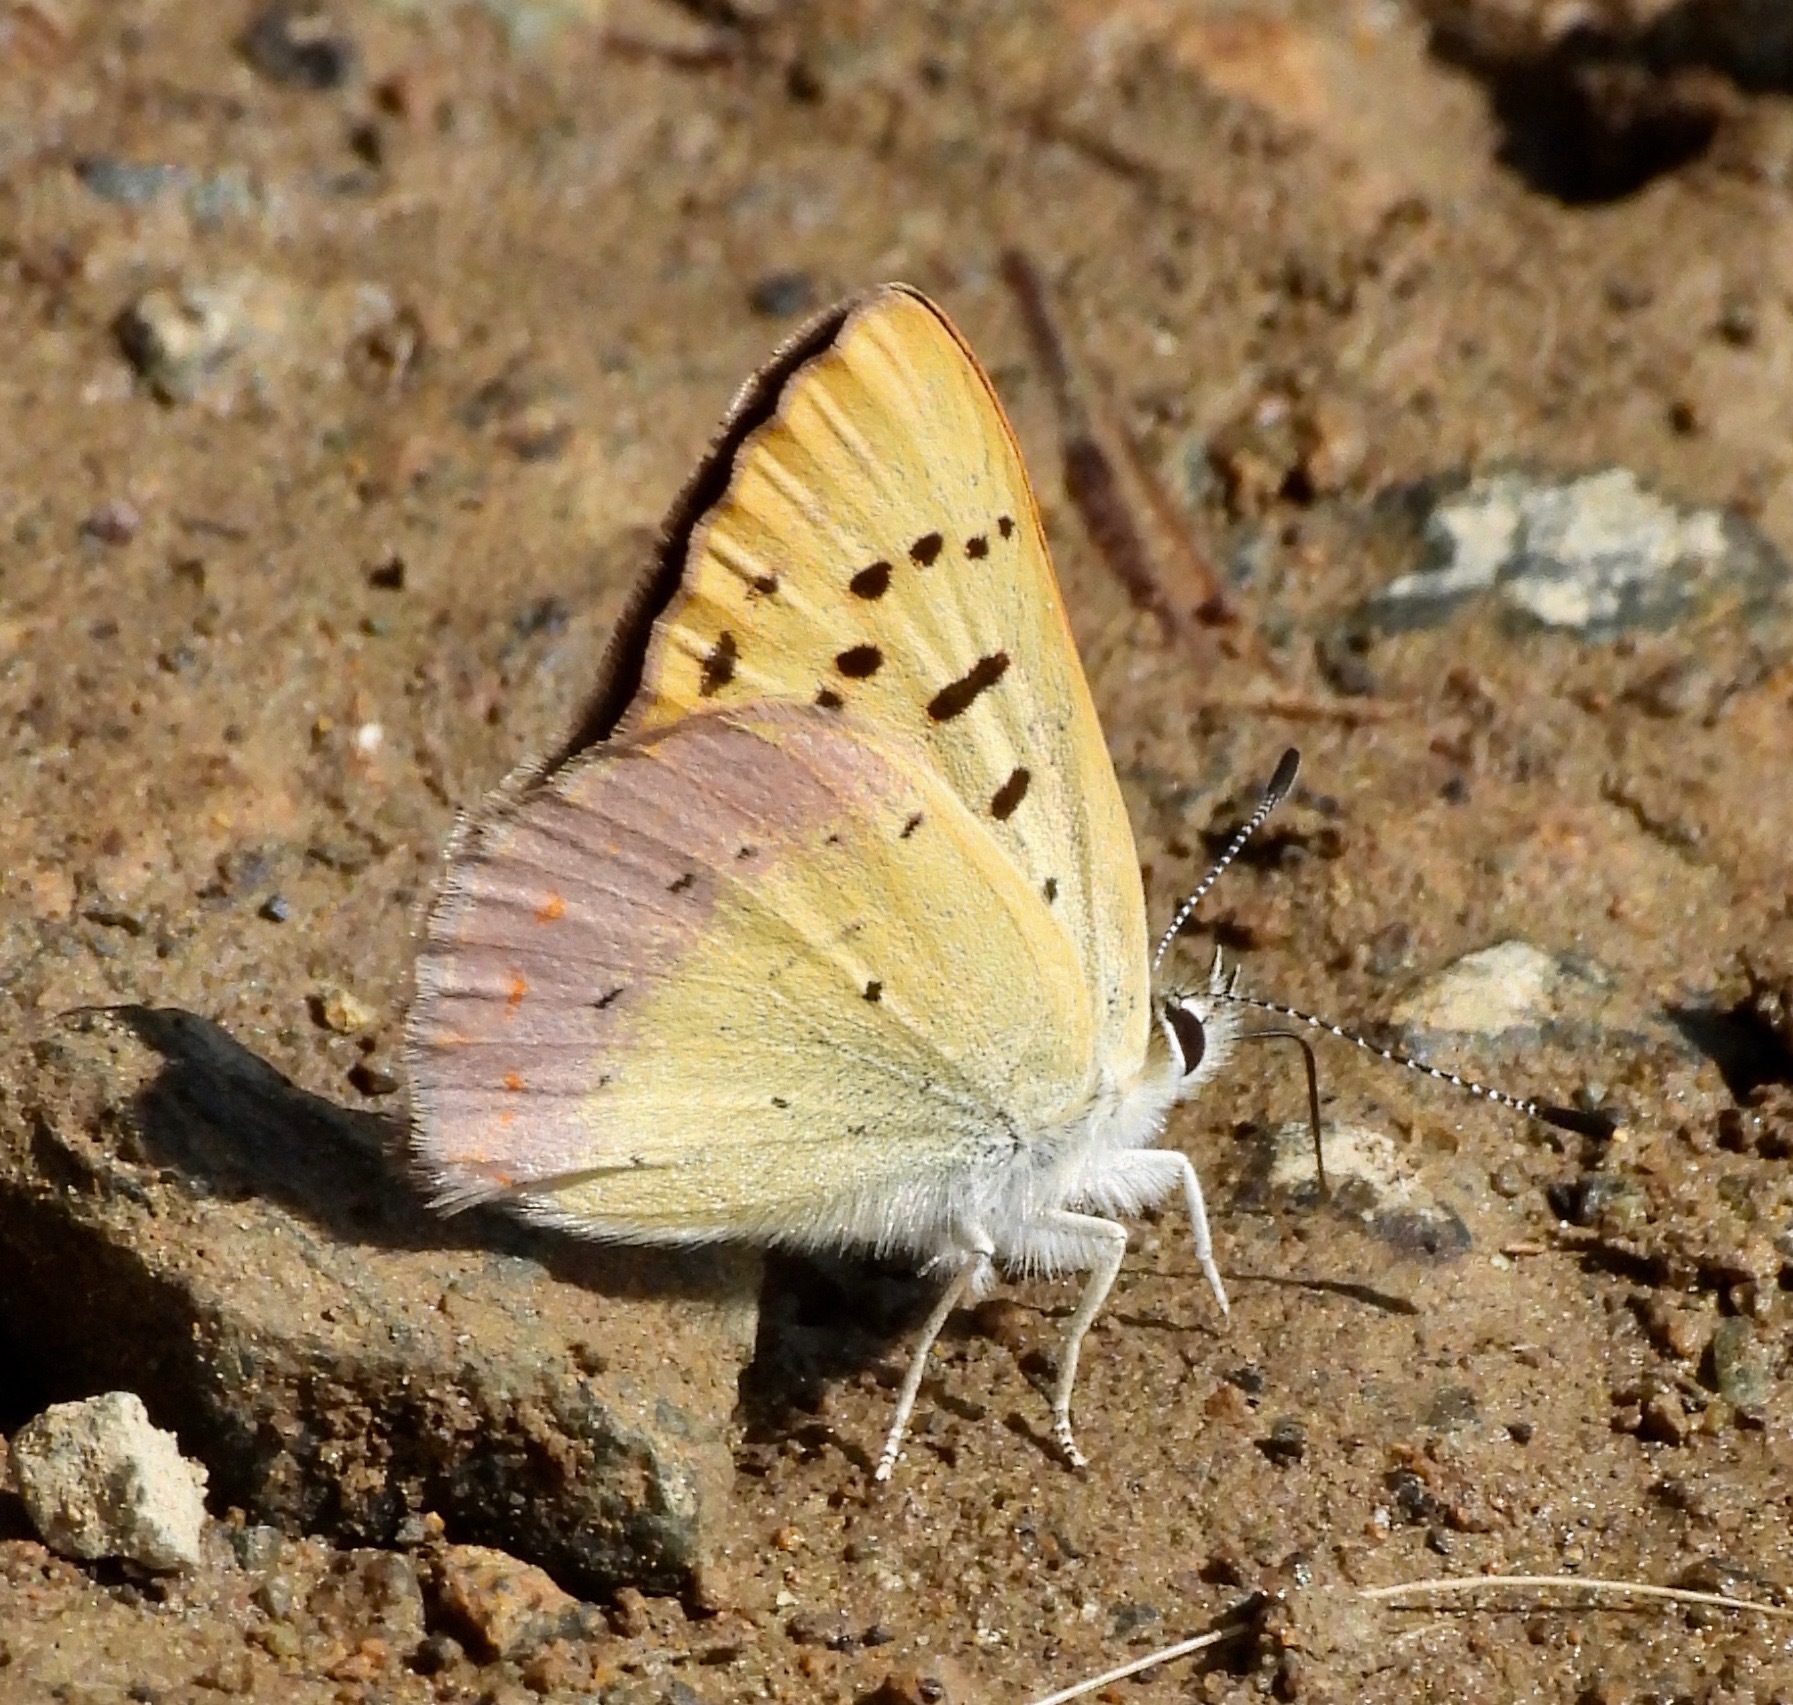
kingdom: Animalia
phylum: Arthropoda
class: Insecta
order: Lepidoptera
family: Lycaenidae
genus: Tharsalea
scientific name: Tharsalea nivalis
